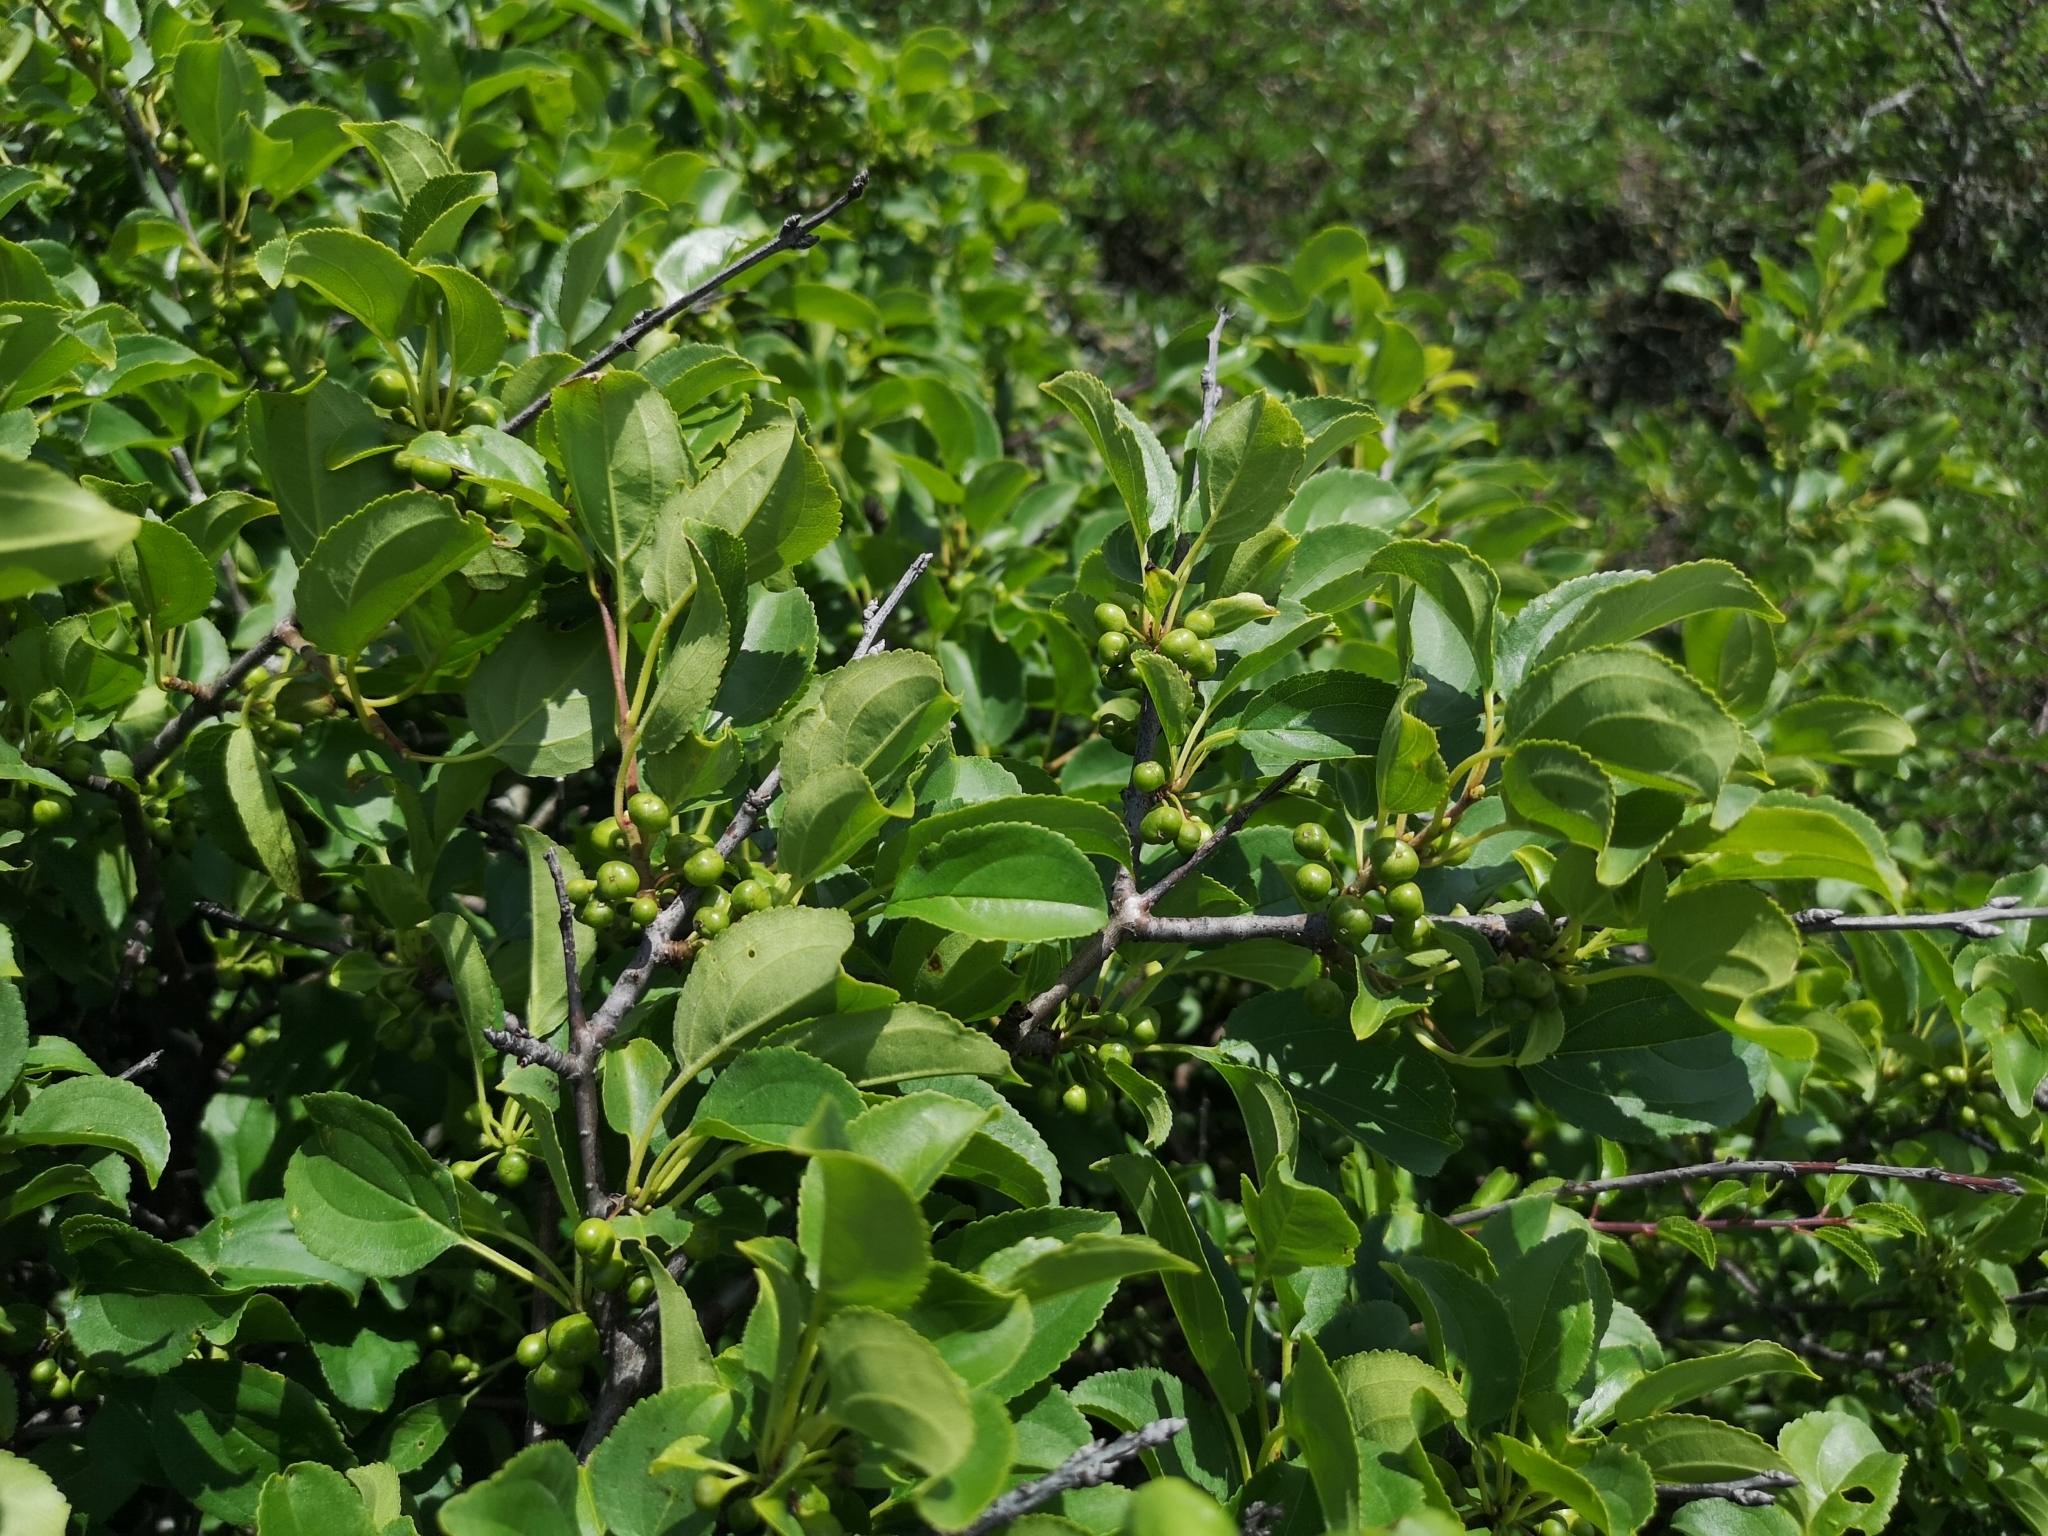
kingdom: Plantae
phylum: Tracheophyta
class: Magnoliopsida
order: Rosales
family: Rhamnaceae
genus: Rhamnus
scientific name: Rhamnus cathartica
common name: Common buckthorn
